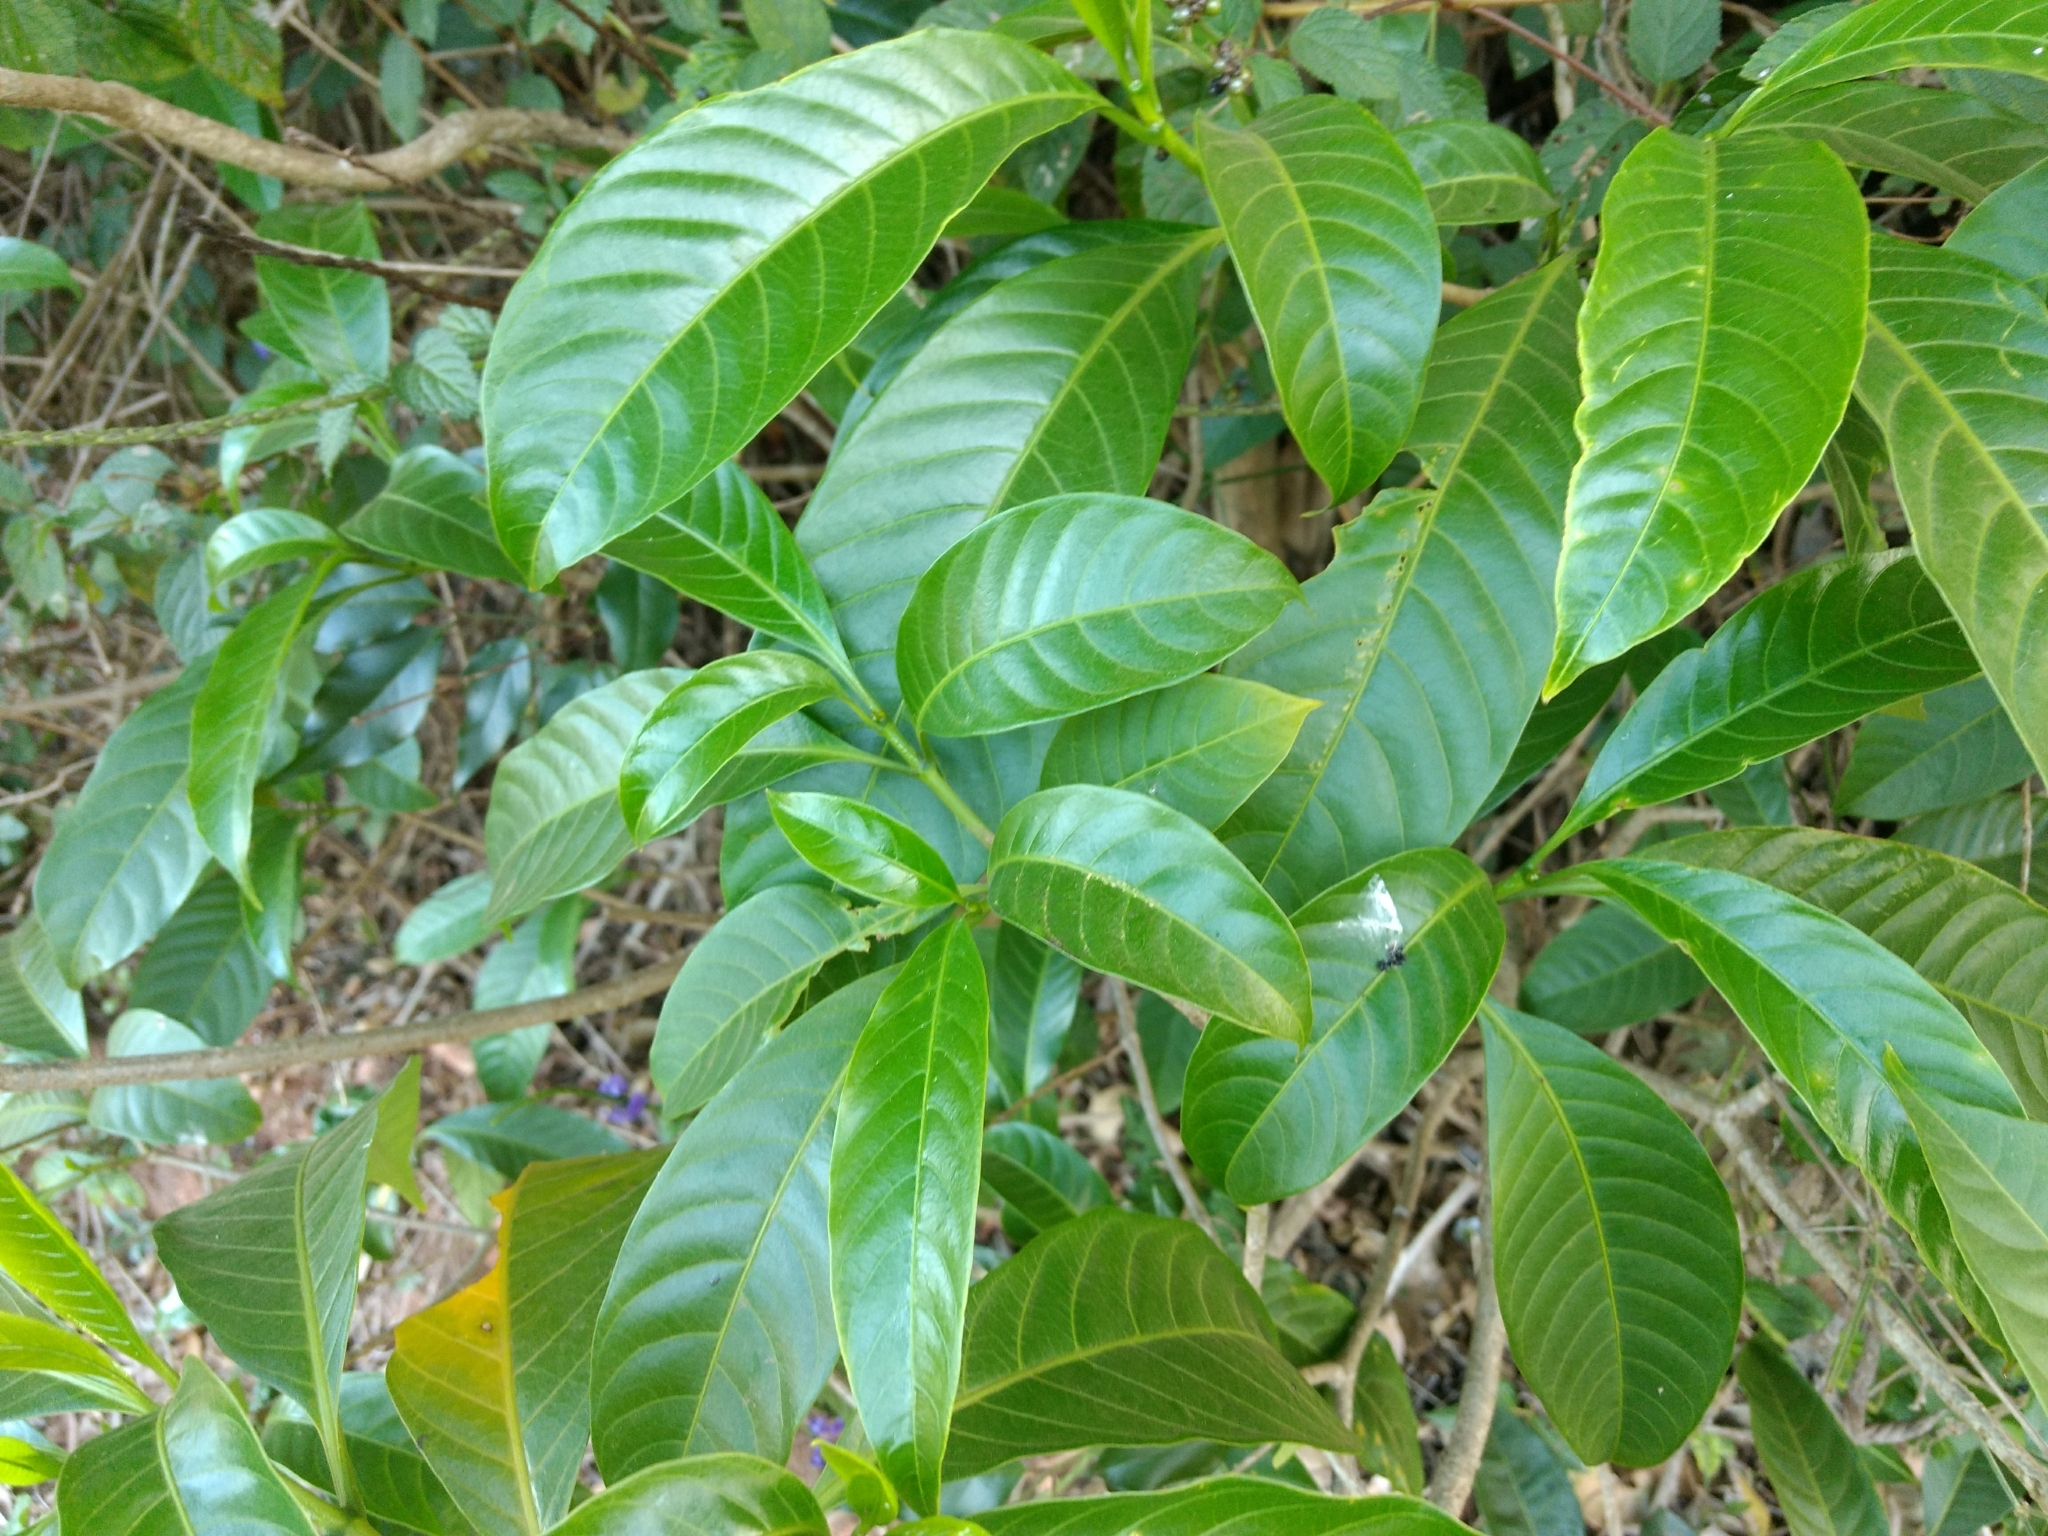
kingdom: Plantae
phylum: Tracheophyta
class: Magnoliopsida
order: Gentianales
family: Apocynaceae
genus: Tabernaemontana
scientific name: Tabernaemontana alternifolia
